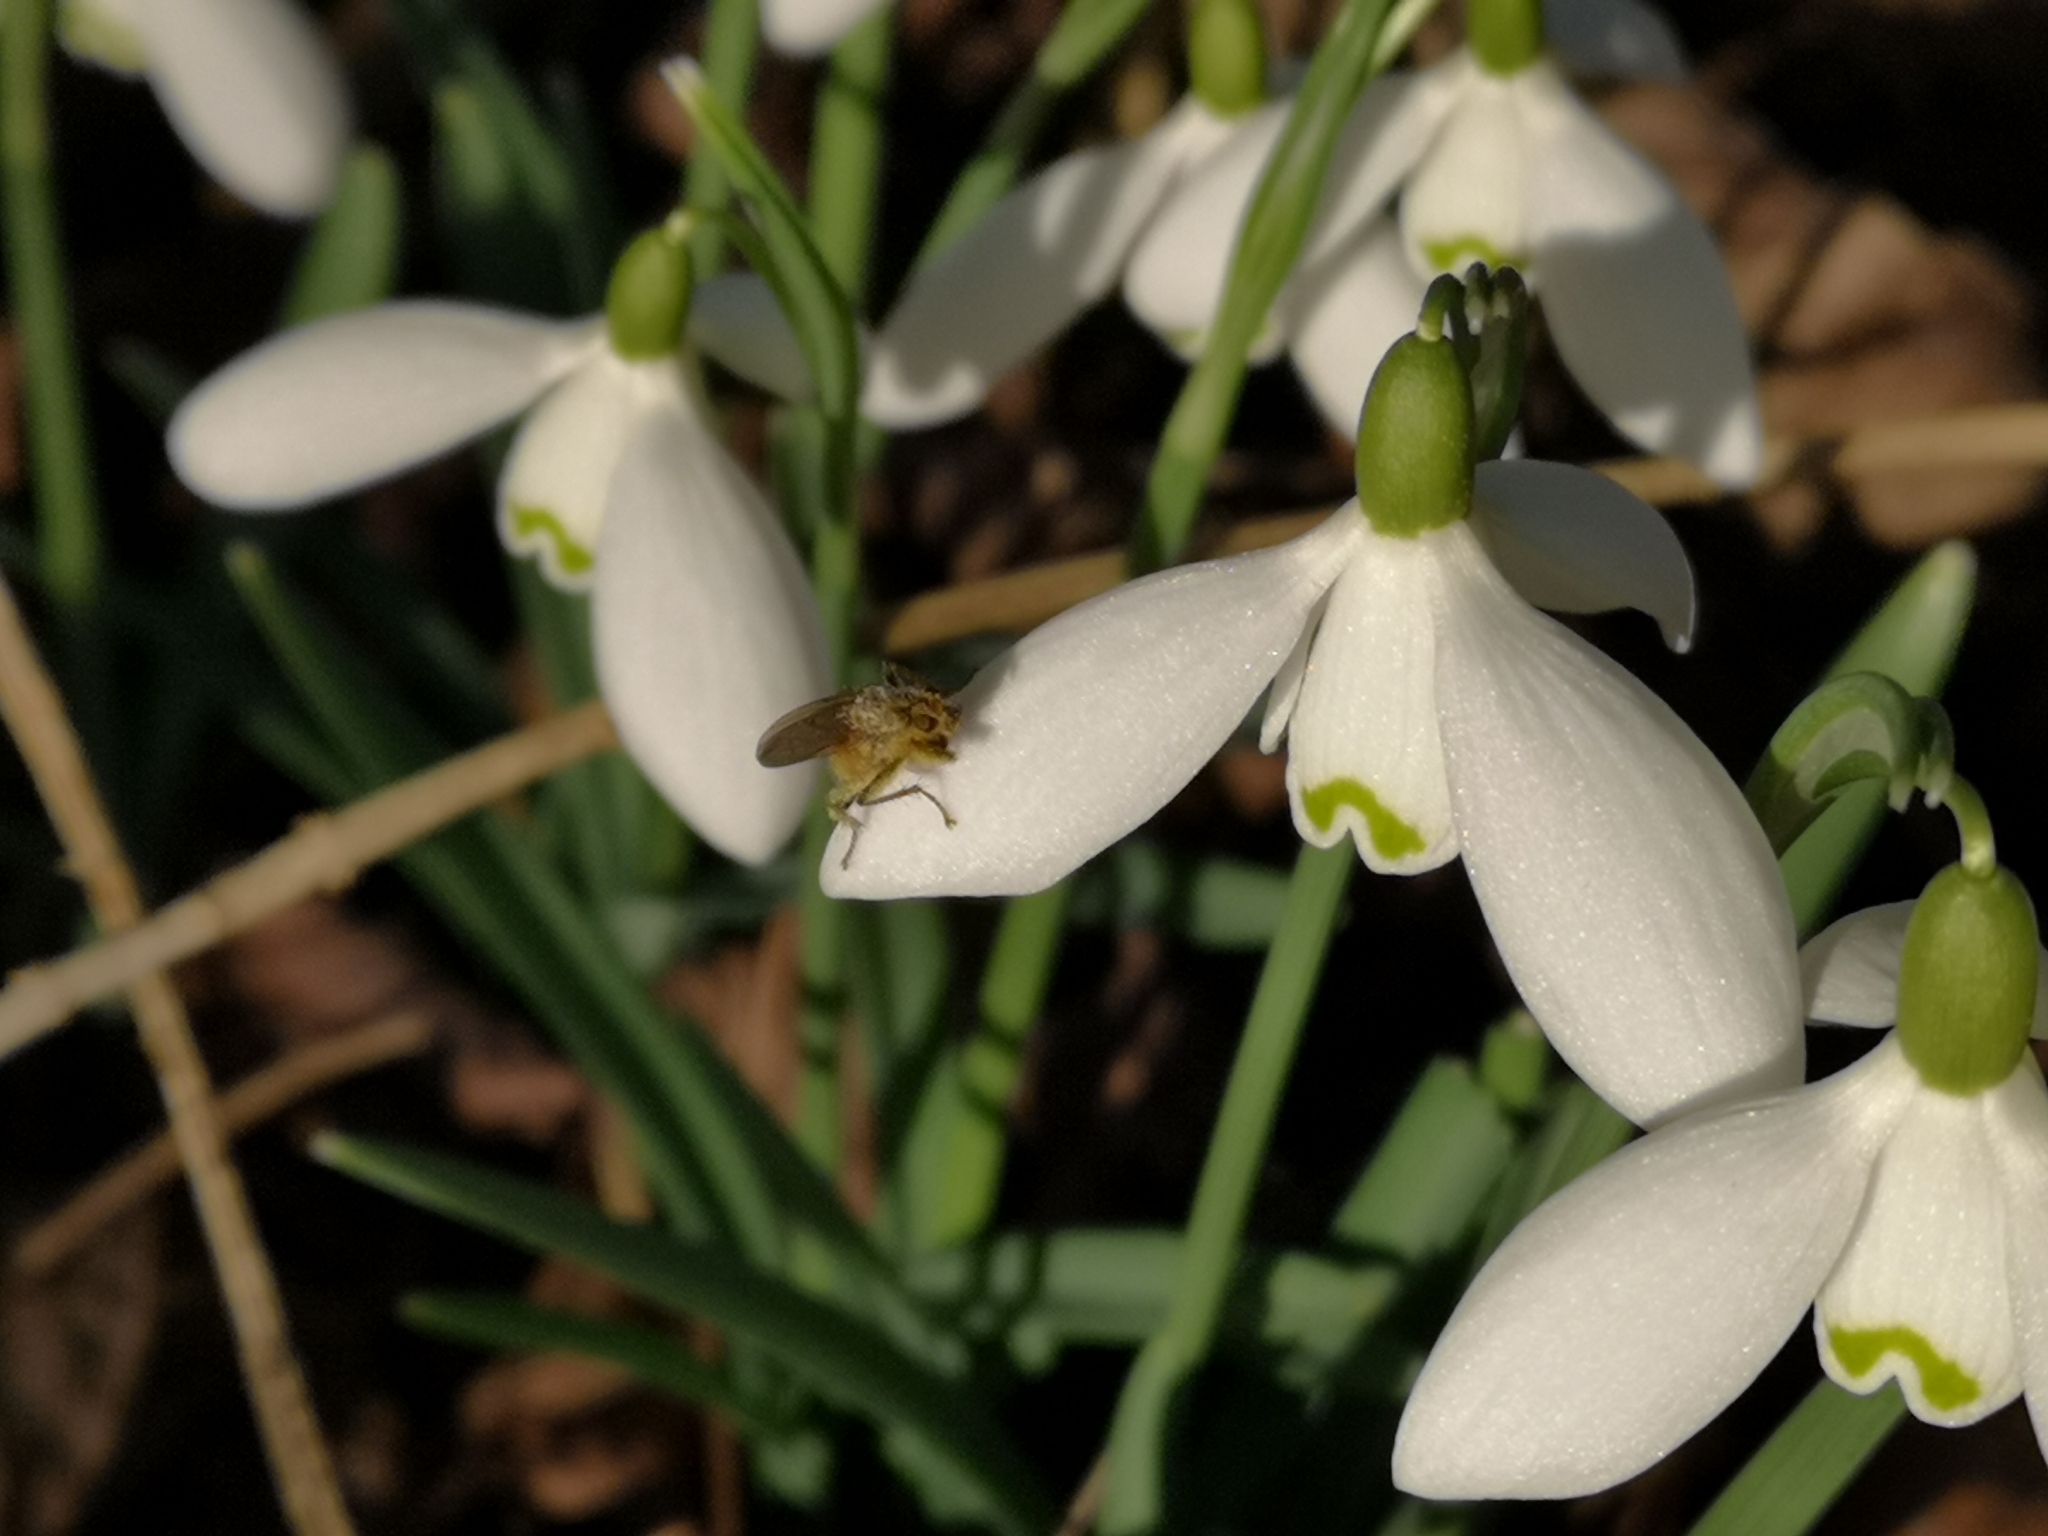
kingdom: Plantae
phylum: Tracheophyta
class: Liliopsida
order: Asparagales
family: Amaryllidaceae
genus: Galanthus
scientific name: Galanthus nivalis
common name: Snowdrop
